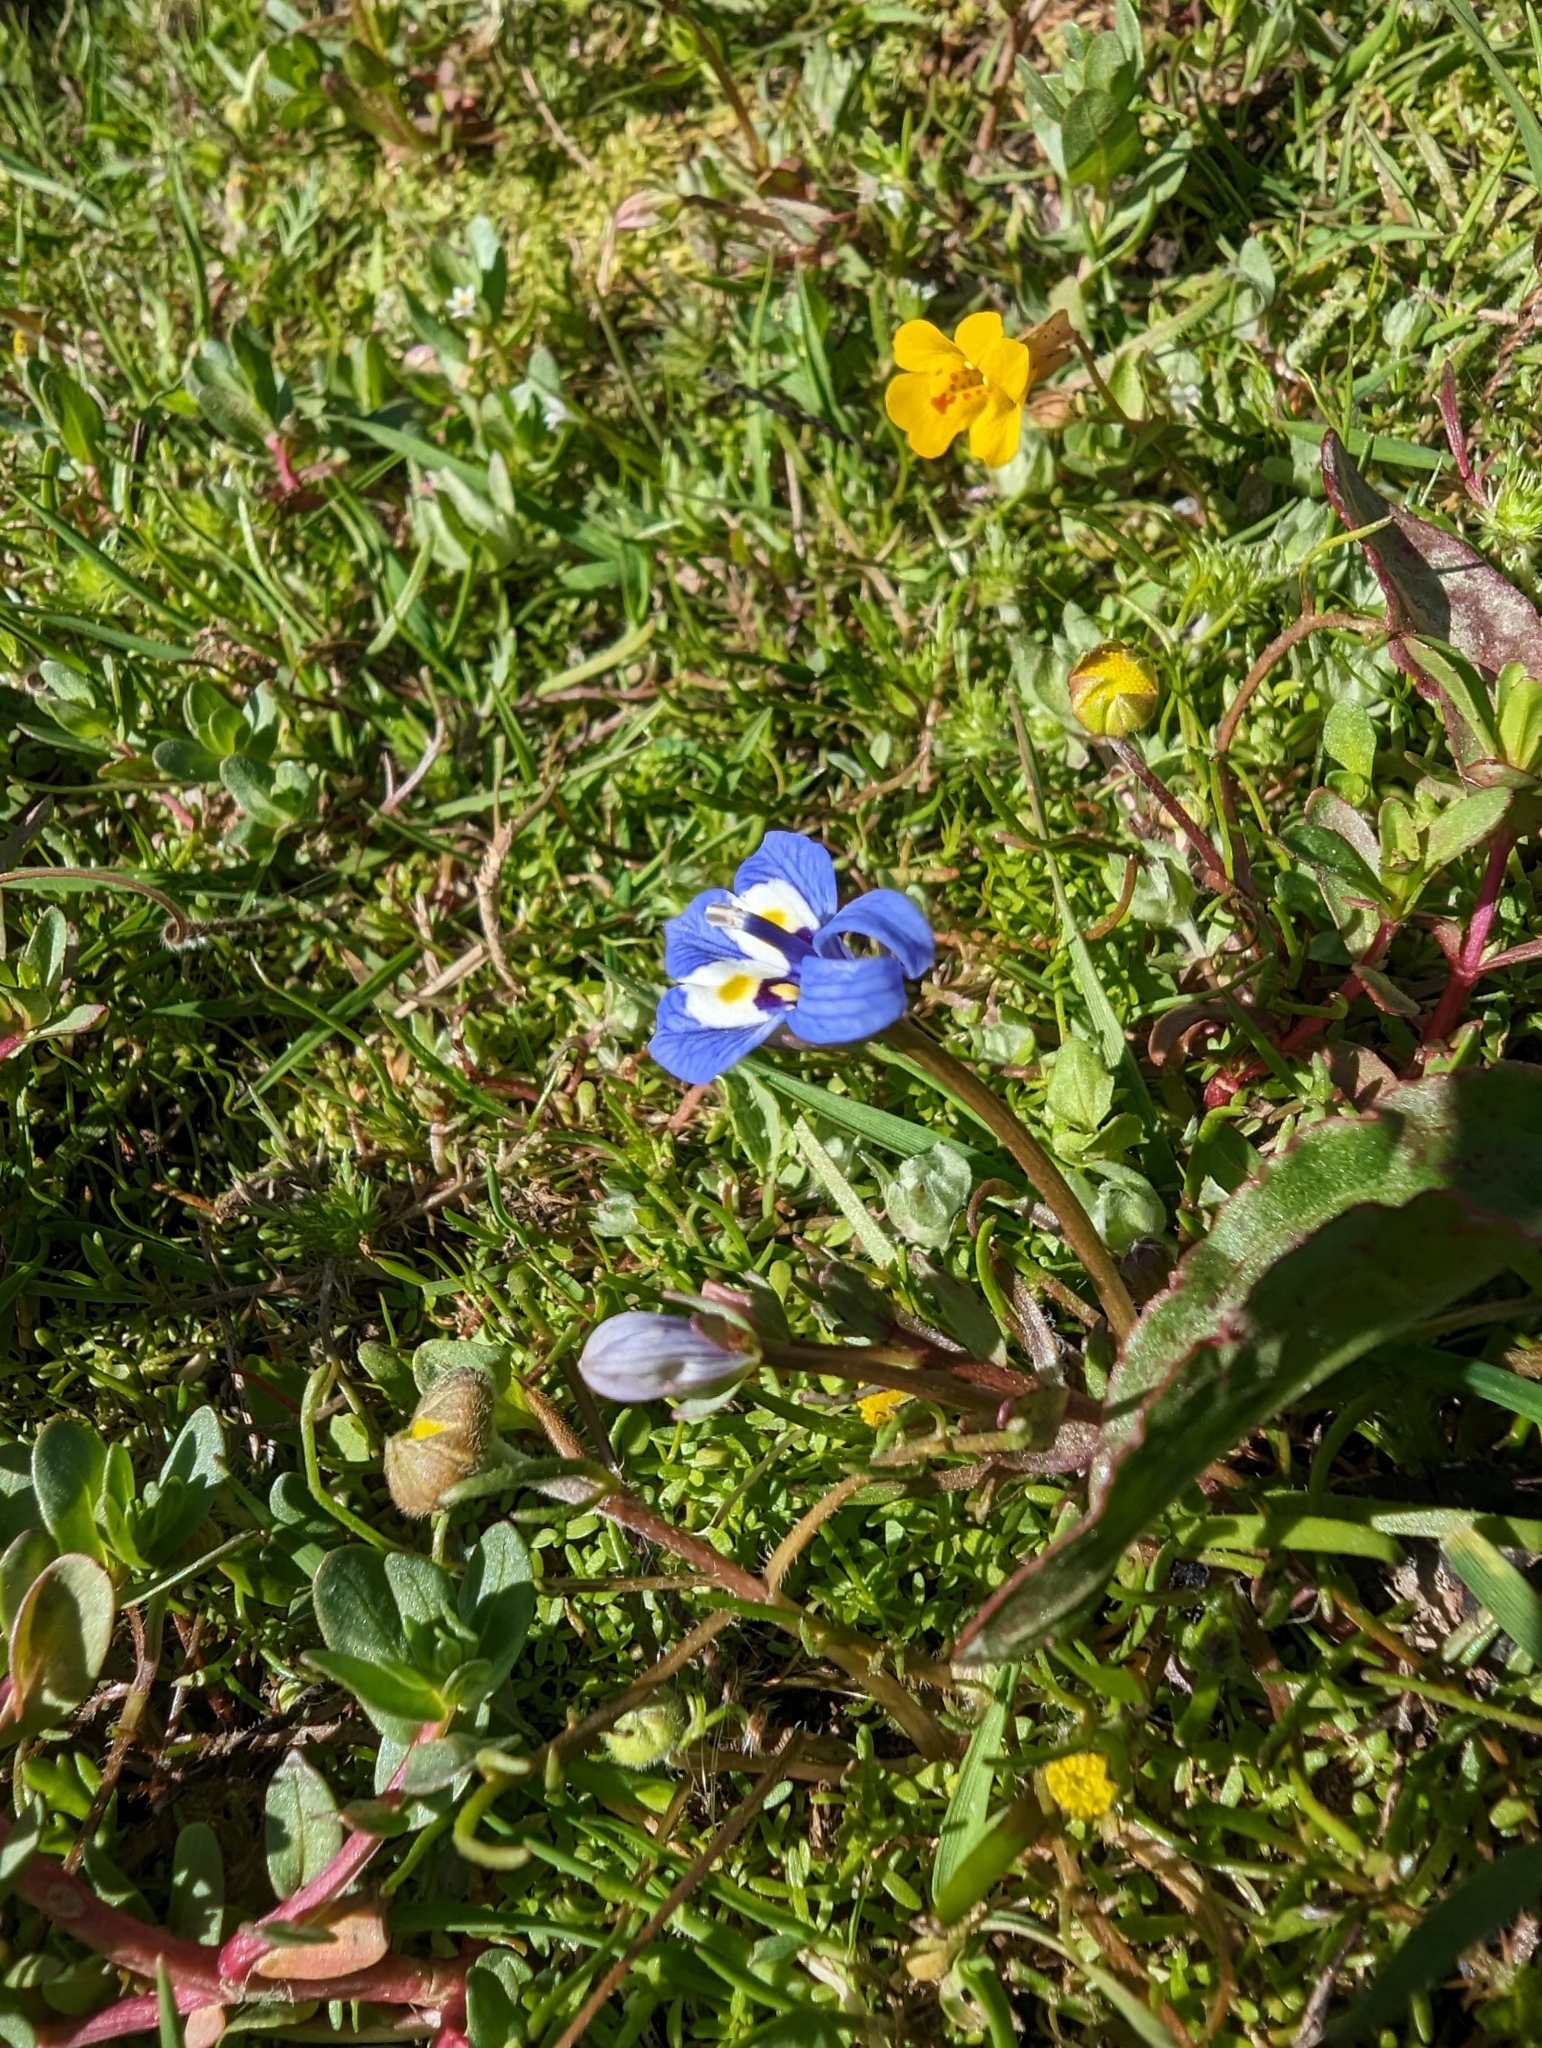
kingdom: Plantae
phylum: Tracheophyta
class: Magnoliopsida
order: Asterales
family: Campanulaceae
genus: Downingia
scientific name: Downingia insignis
